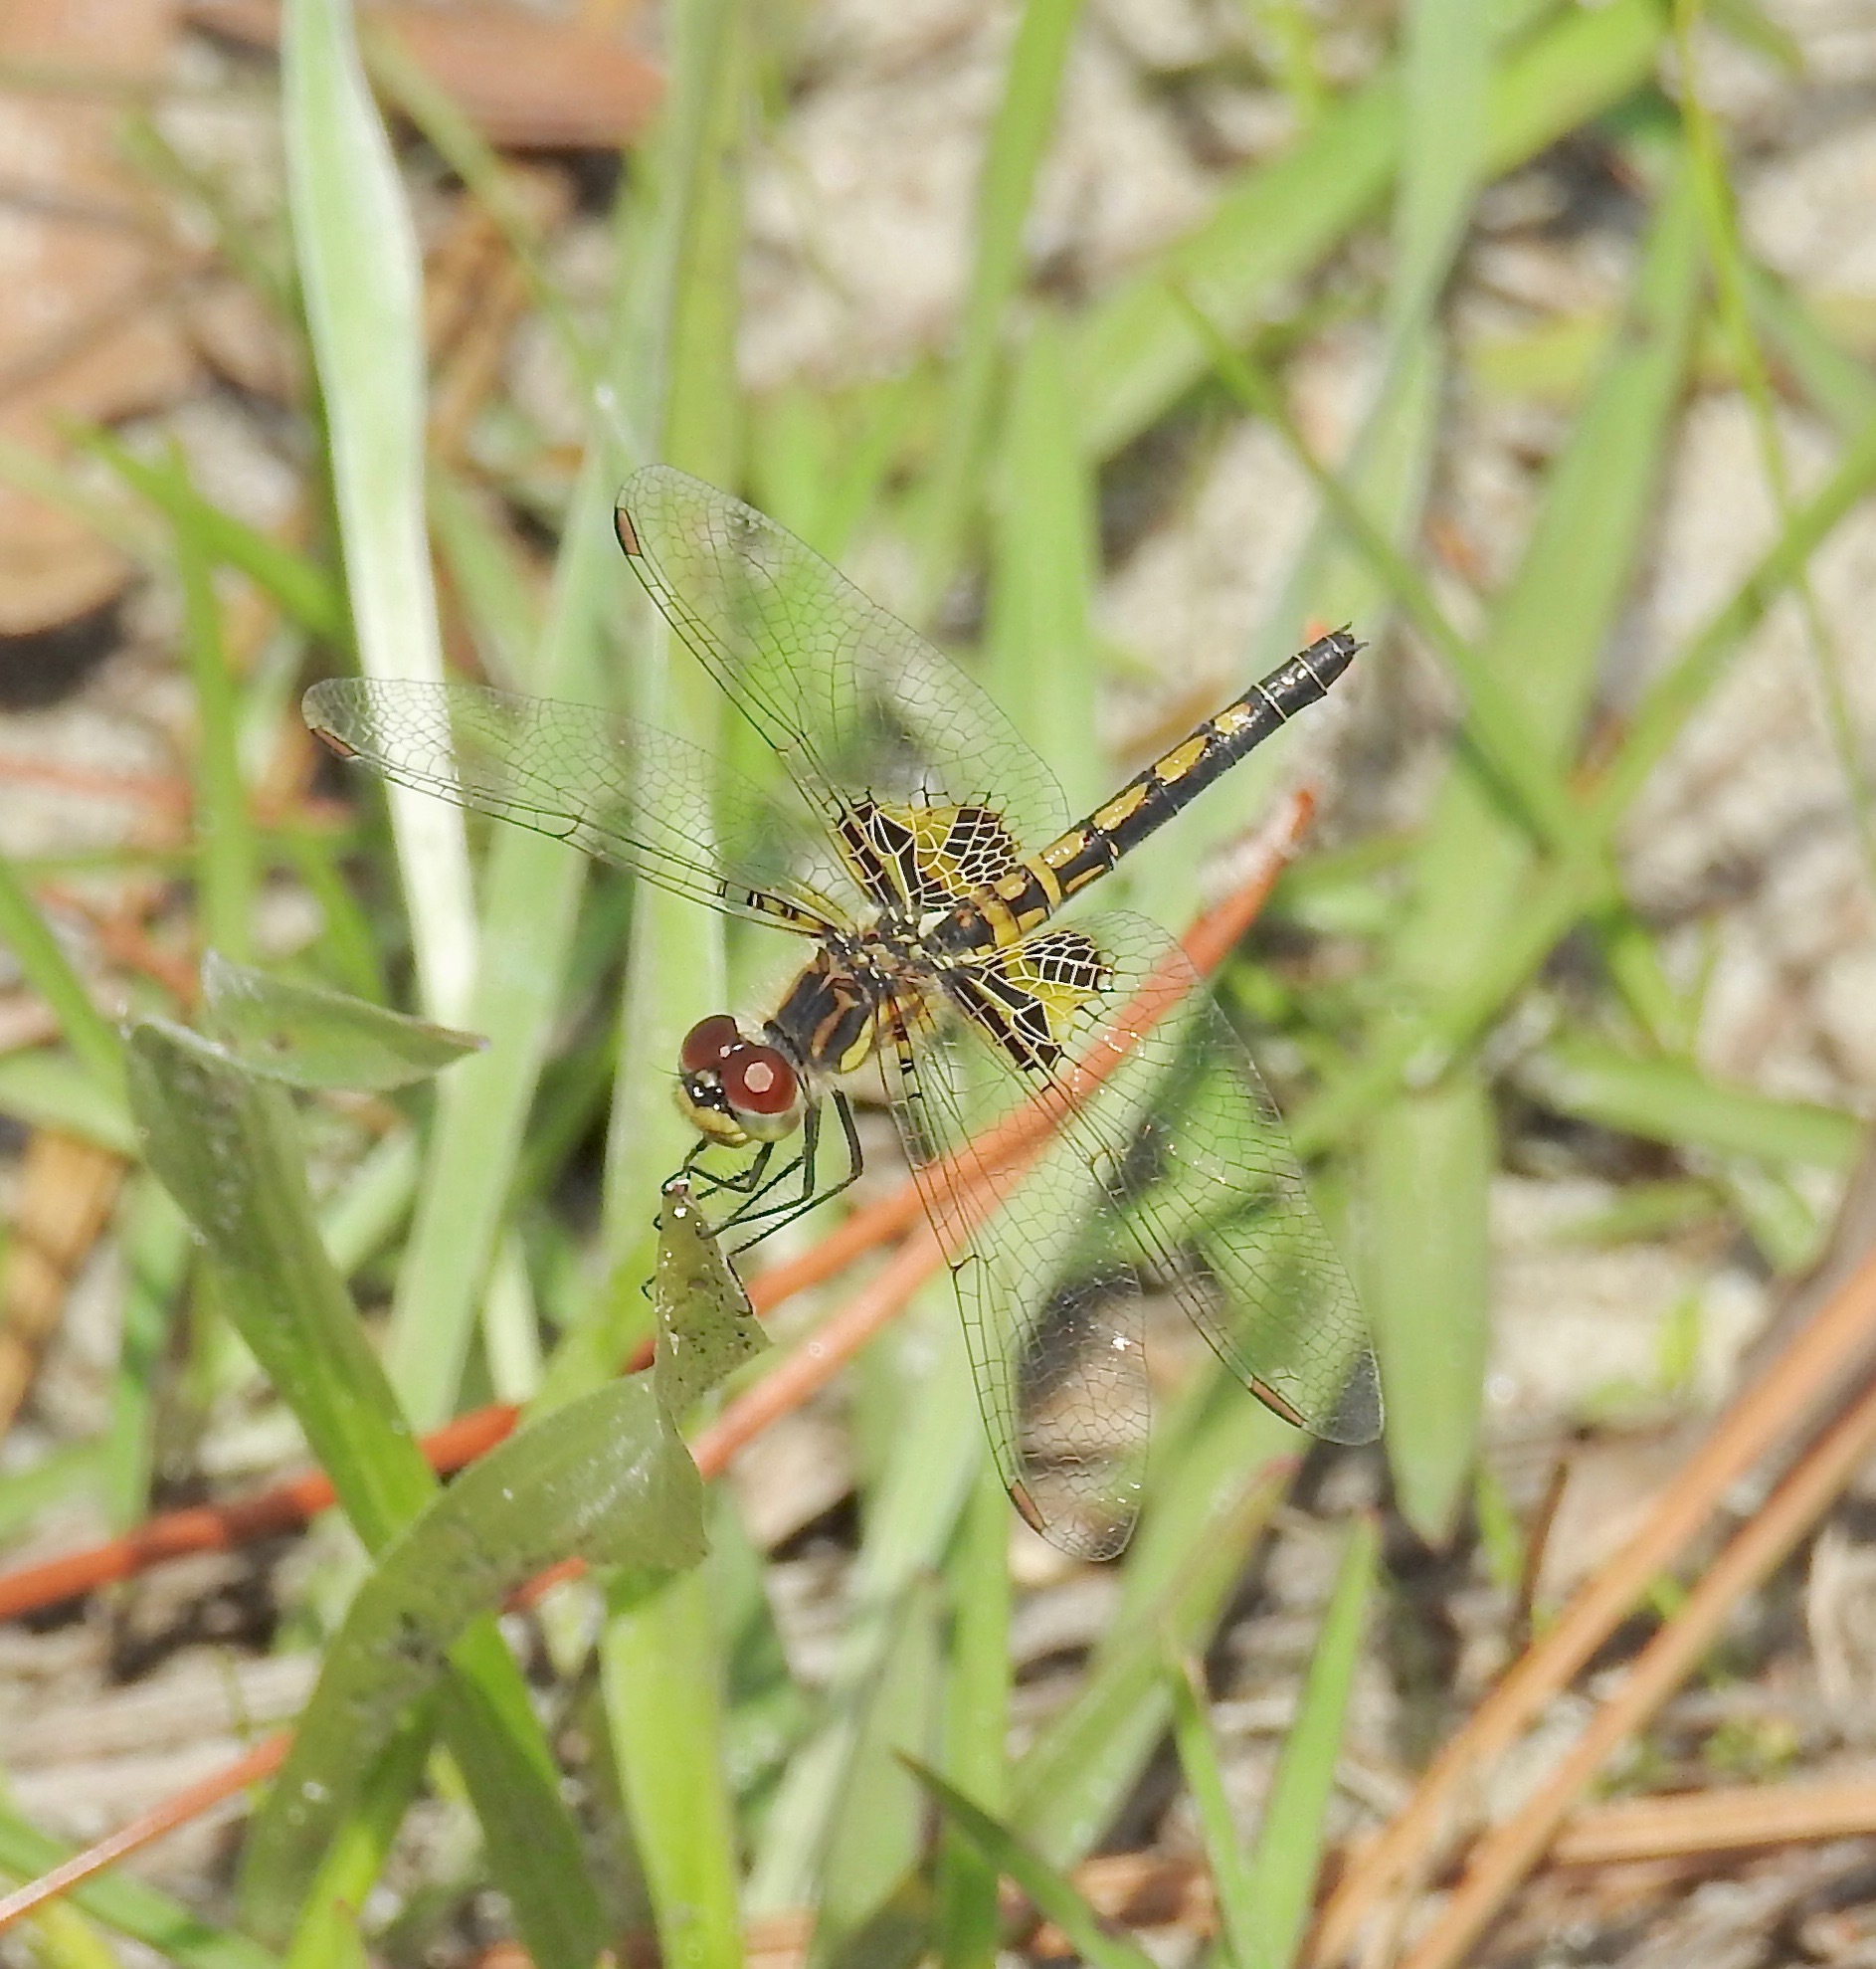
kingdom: Animalia
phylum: Arthropoda
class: Insecta
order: Odonata
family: Libellulidae
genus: Celithemis
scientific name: Celithemis ornata
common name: Ornate pennant
